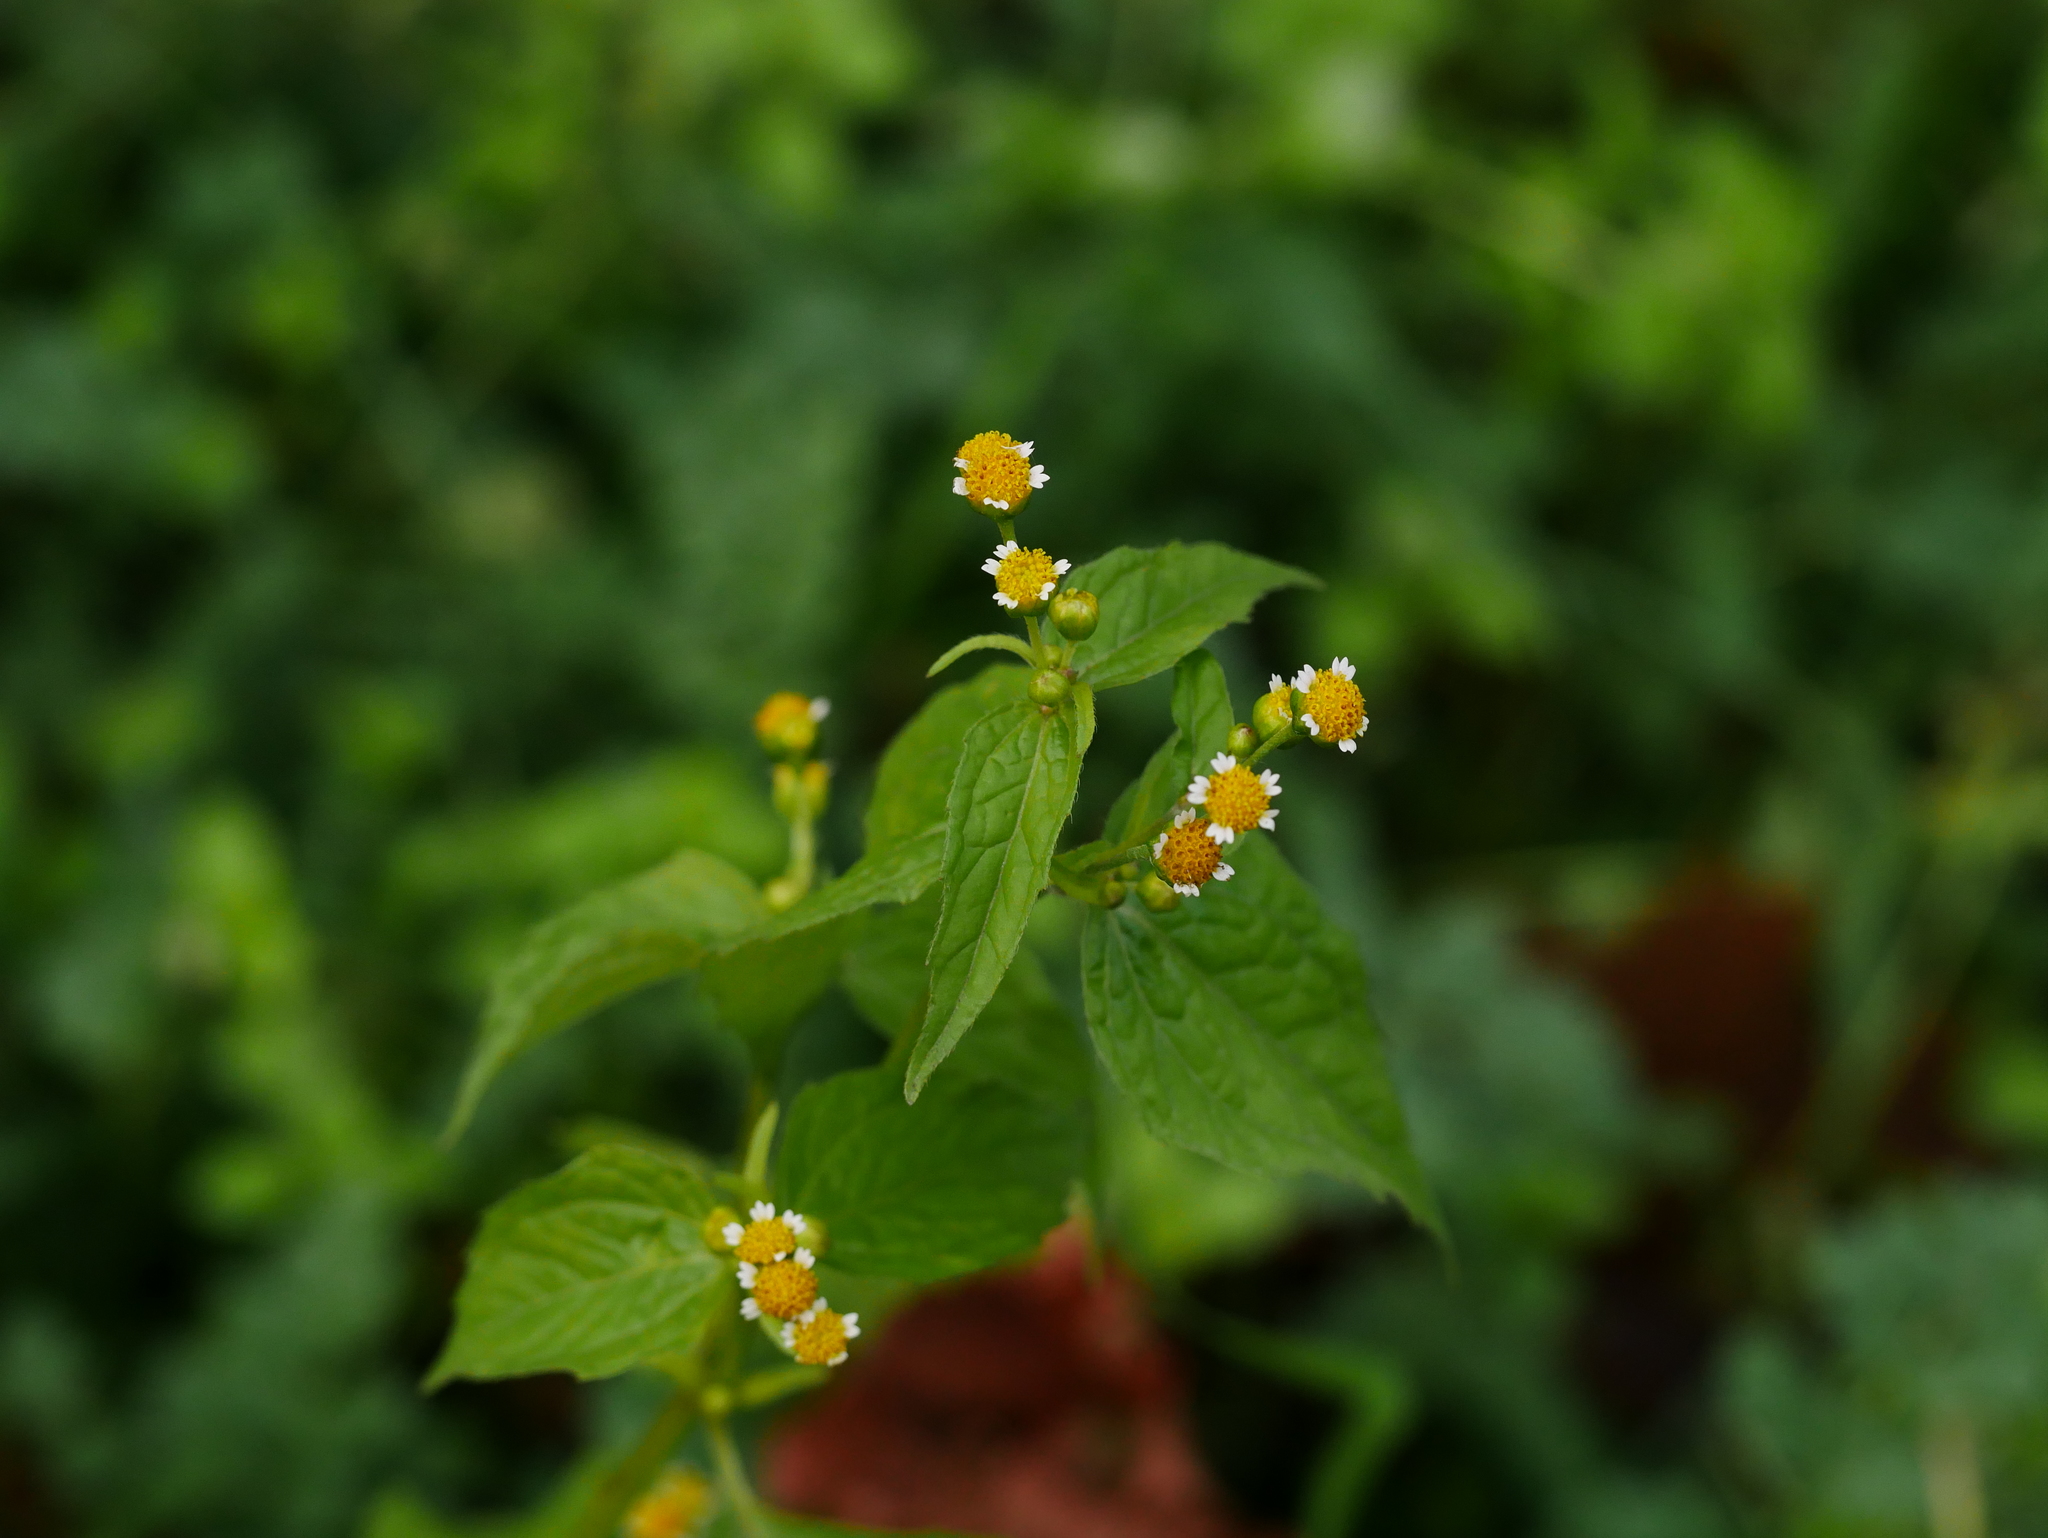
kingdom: Plantae
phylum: Tracheophyta
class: Magnoliopsida
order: Asterales
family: Asteraceae
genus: Galinsoga
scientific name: Galinsoga parviflora
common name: Gallant soldier
